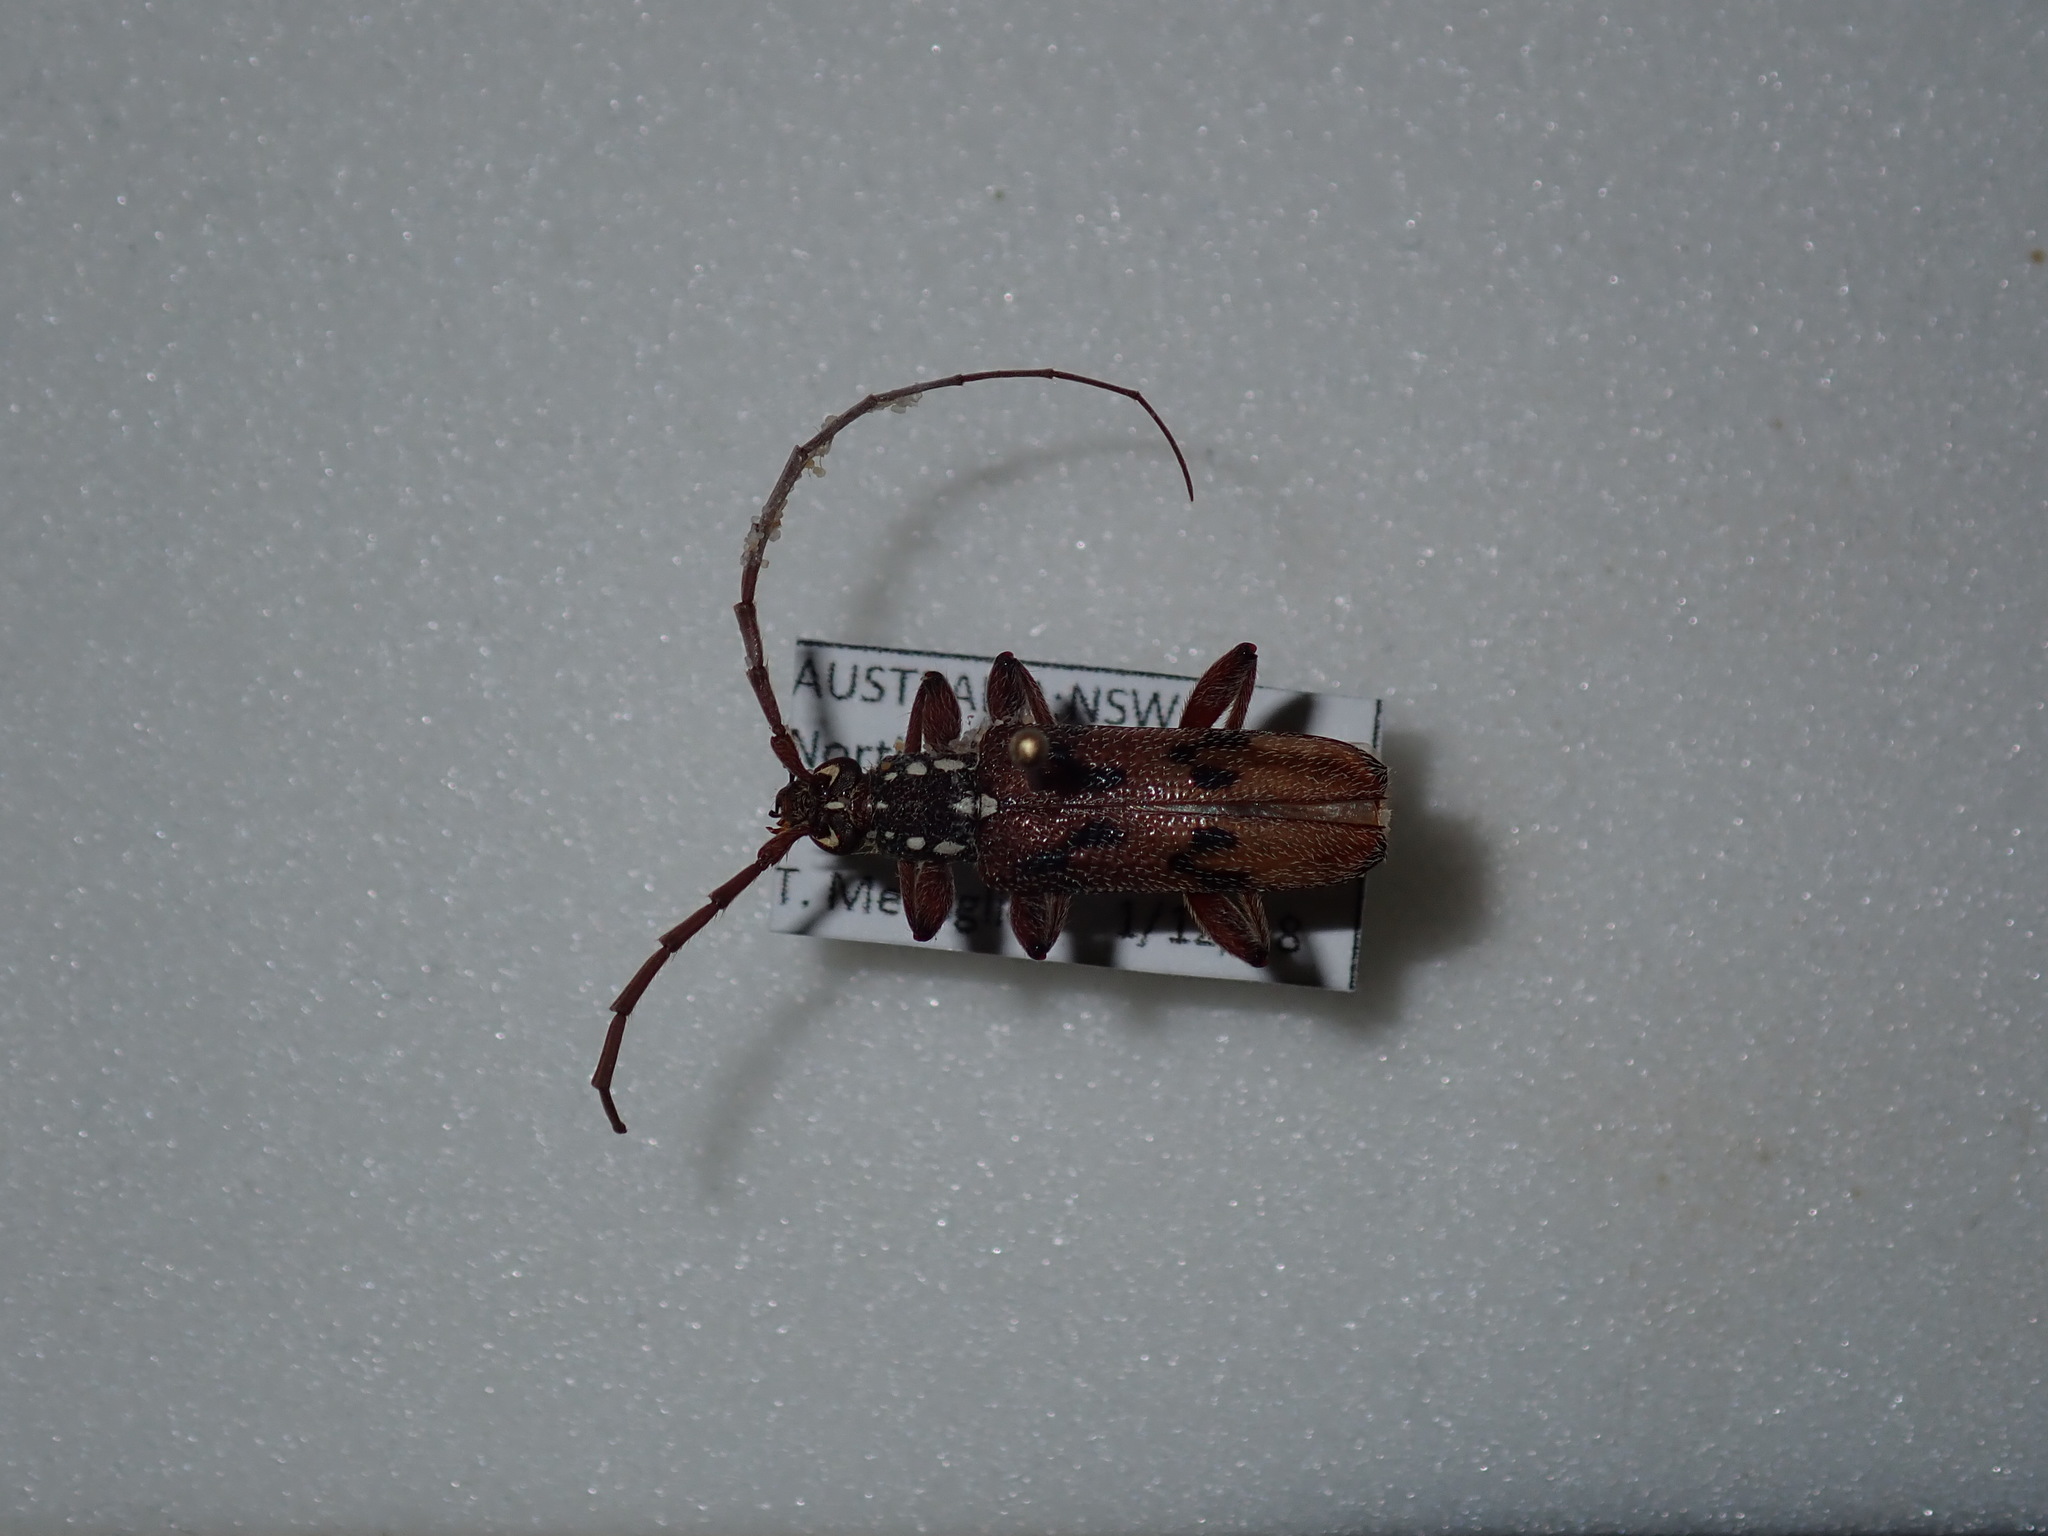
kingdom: Animalia
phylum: Arthropoda
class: Insecta
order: Coleoptera
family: Cerambycidae
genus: Strongylurus
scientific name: Strongylurus cretifer
